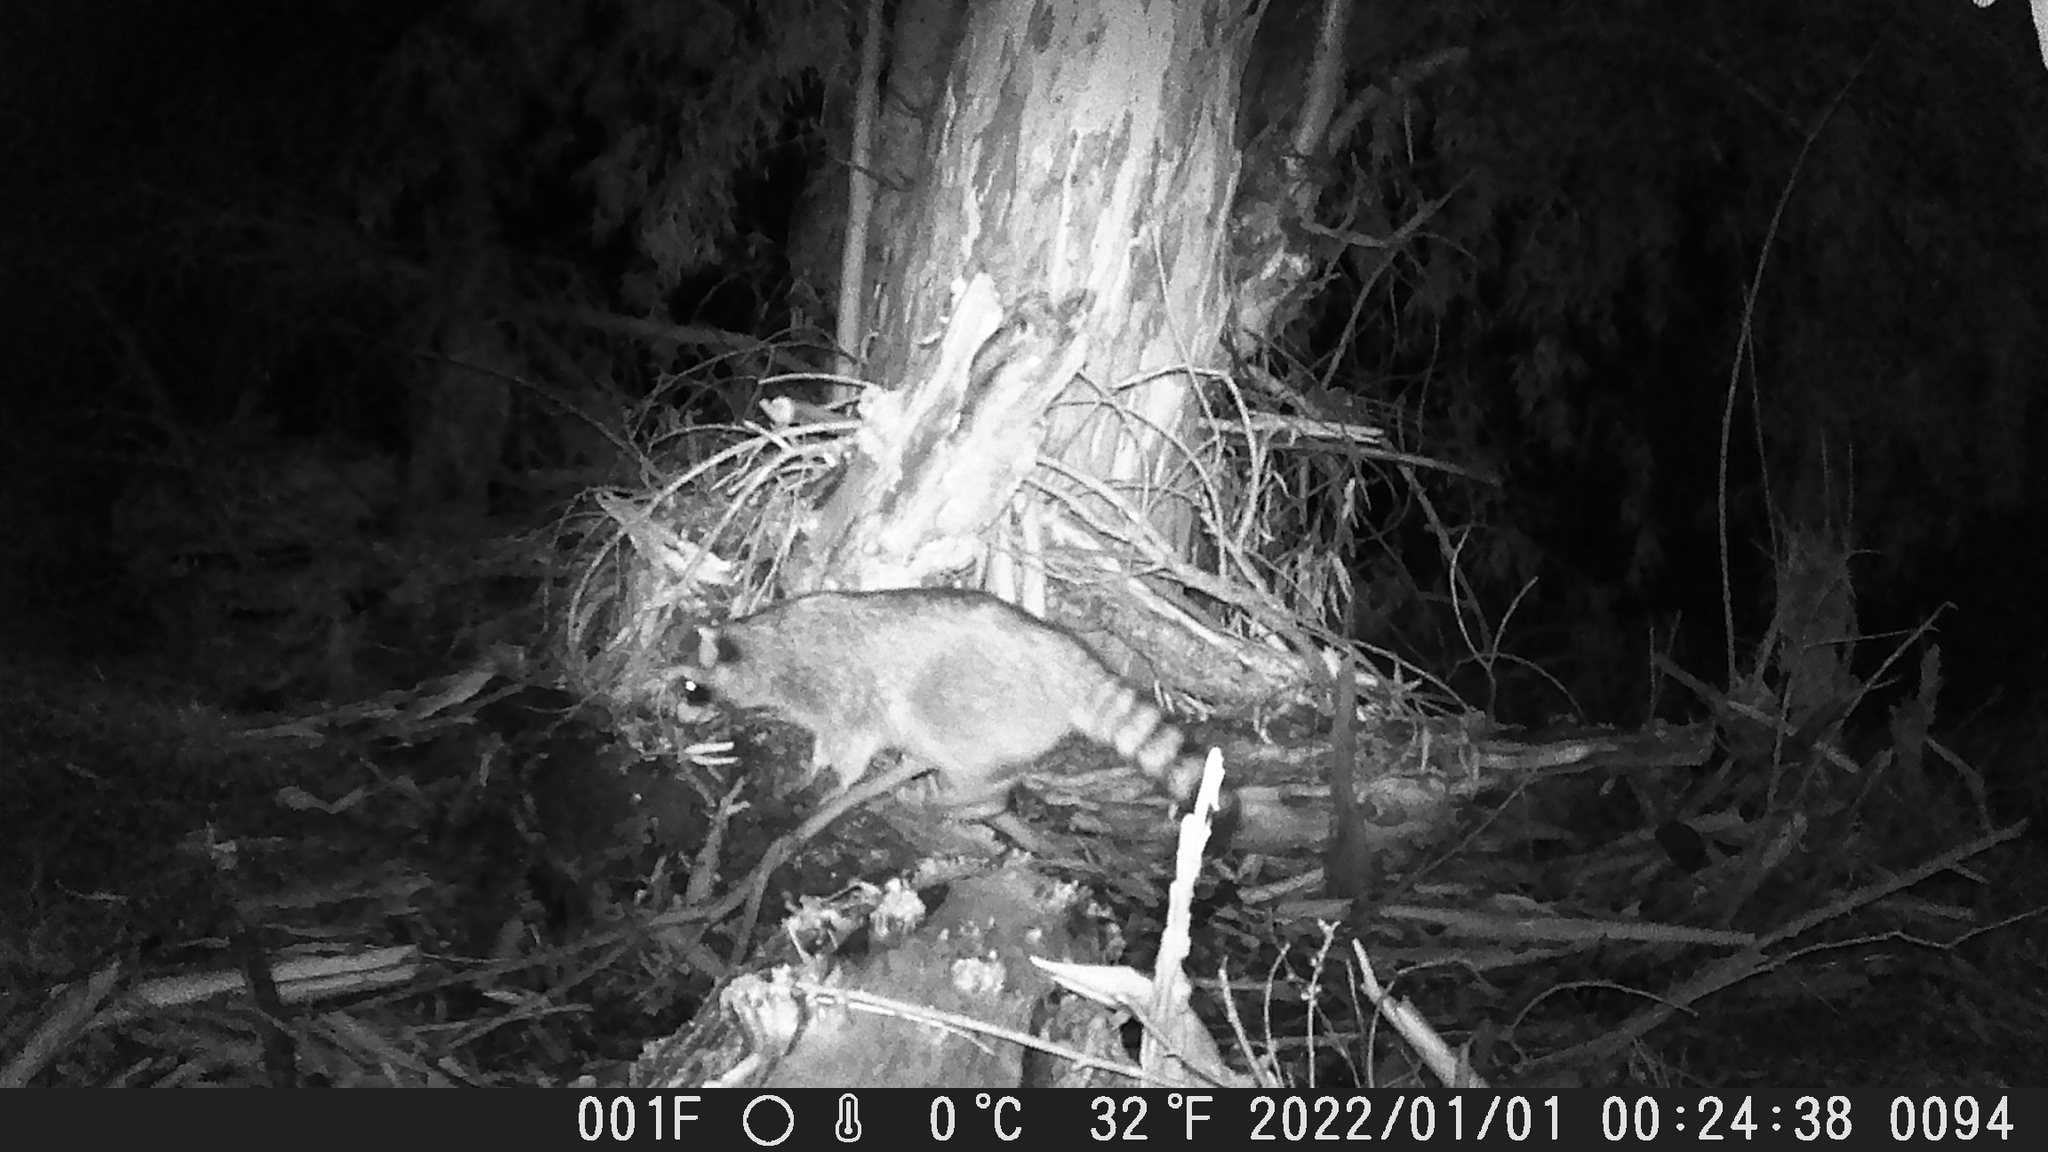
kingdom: Animalia
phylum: Chordata
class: Mammalia
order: Carnivora
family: Procyonidae
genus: Procyon
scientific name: Procyon lotor
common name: Raccoon
